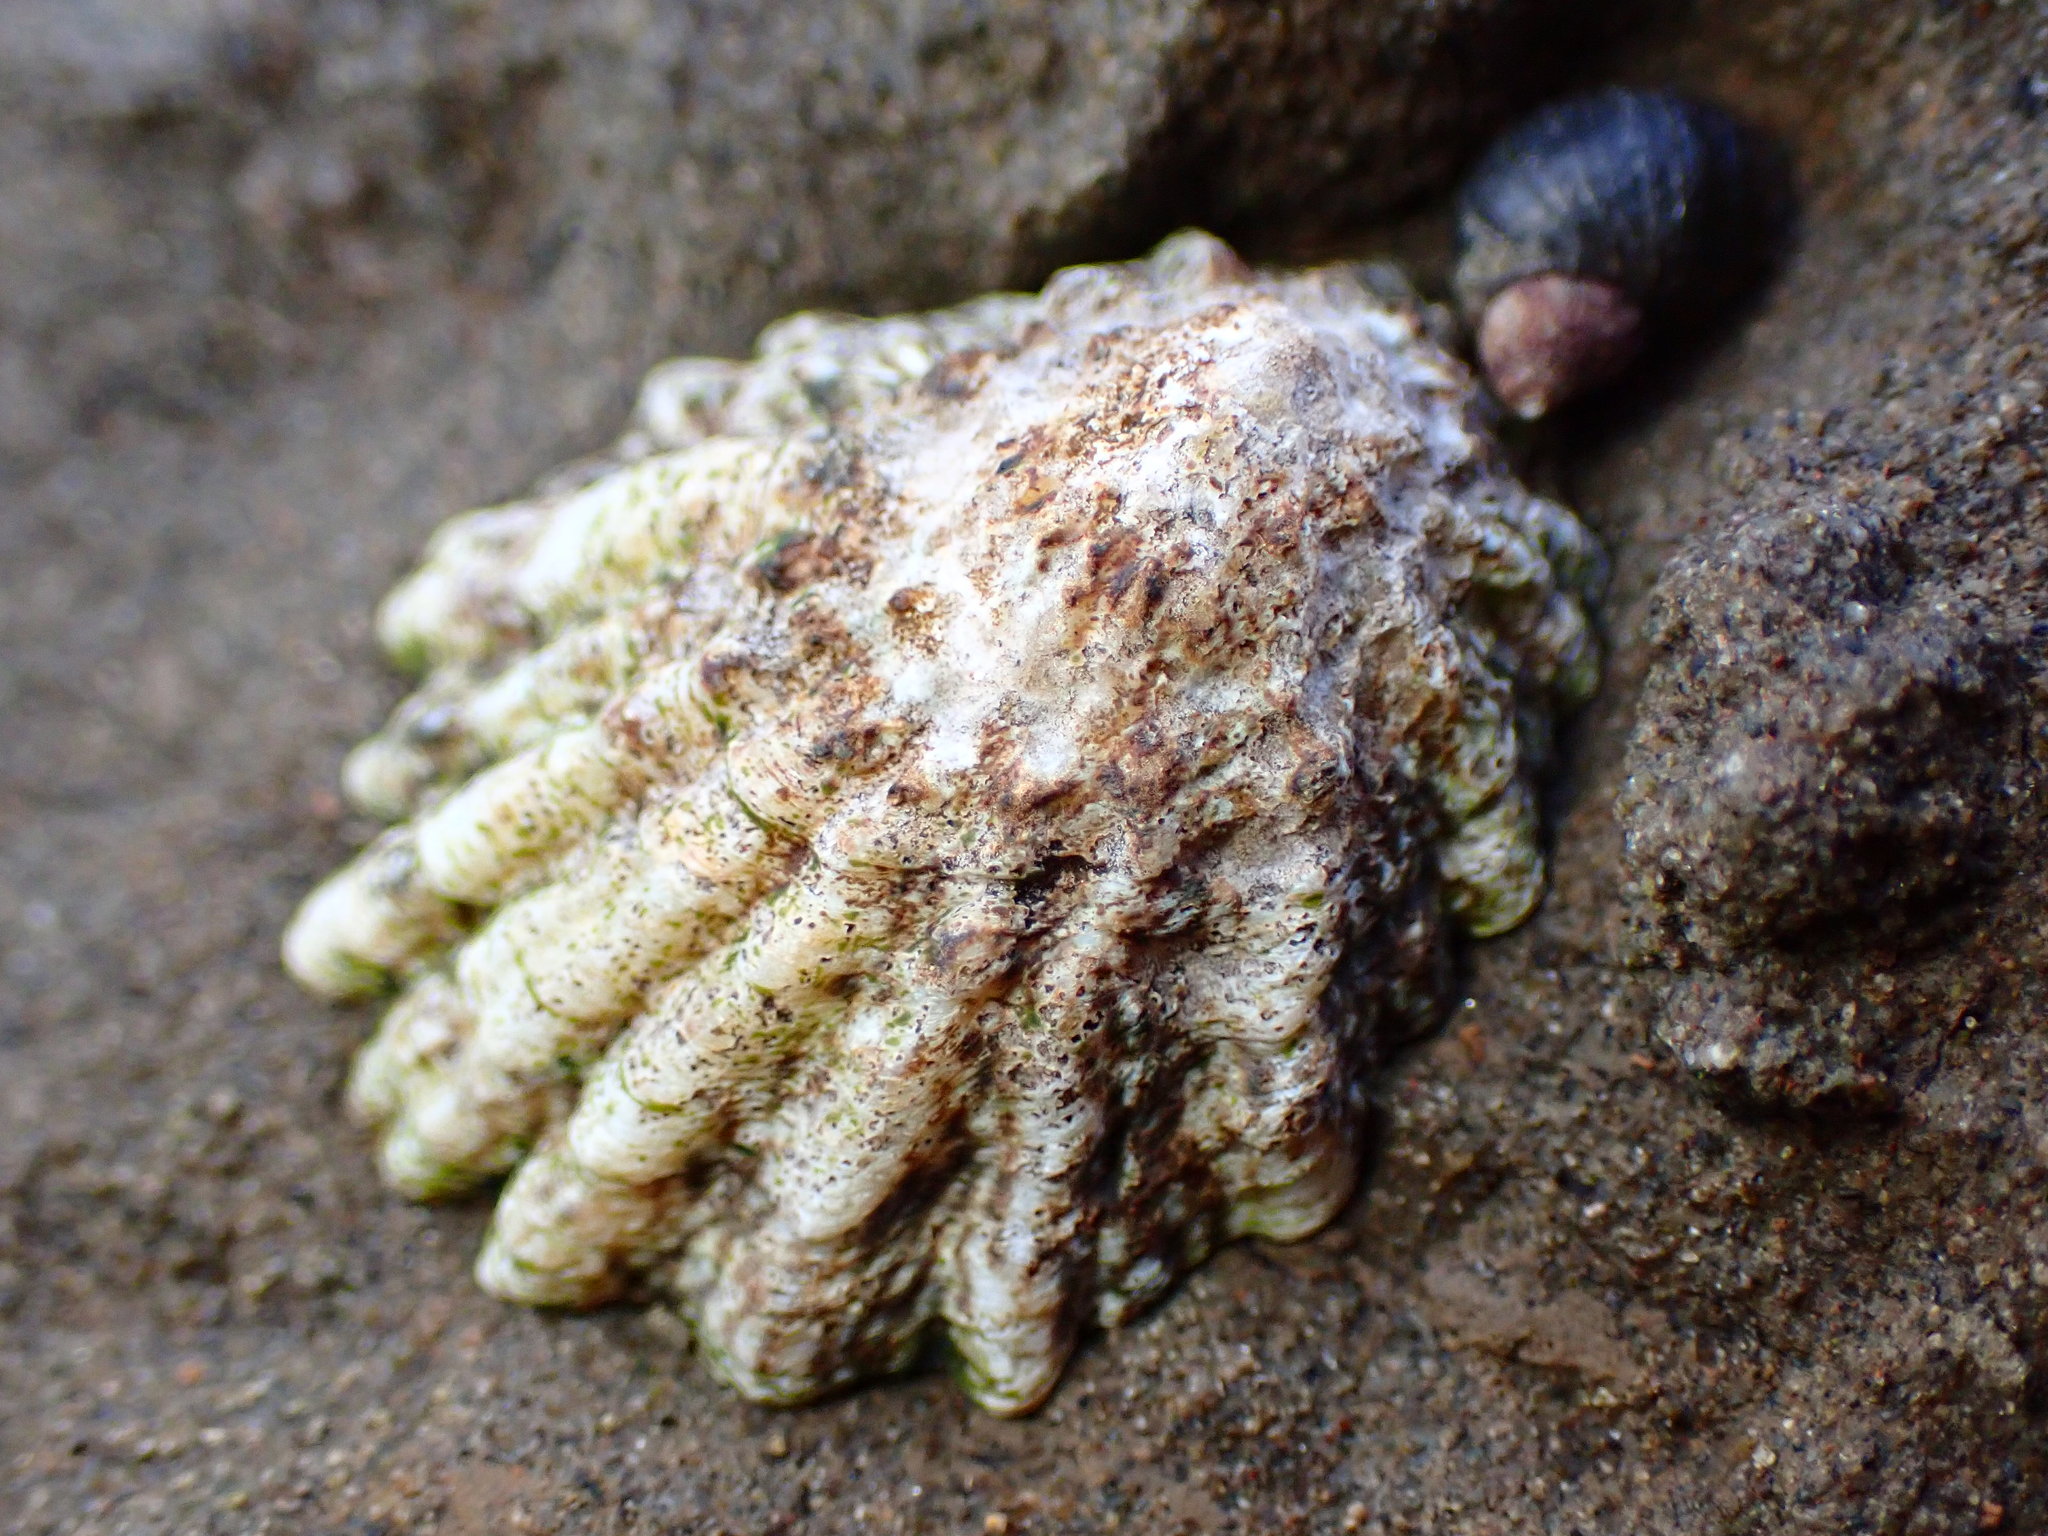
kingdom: Animalia
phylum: Mollusca
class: Gastropoda
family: Lottiidae
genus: Lottia
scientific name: Lottia scabra
